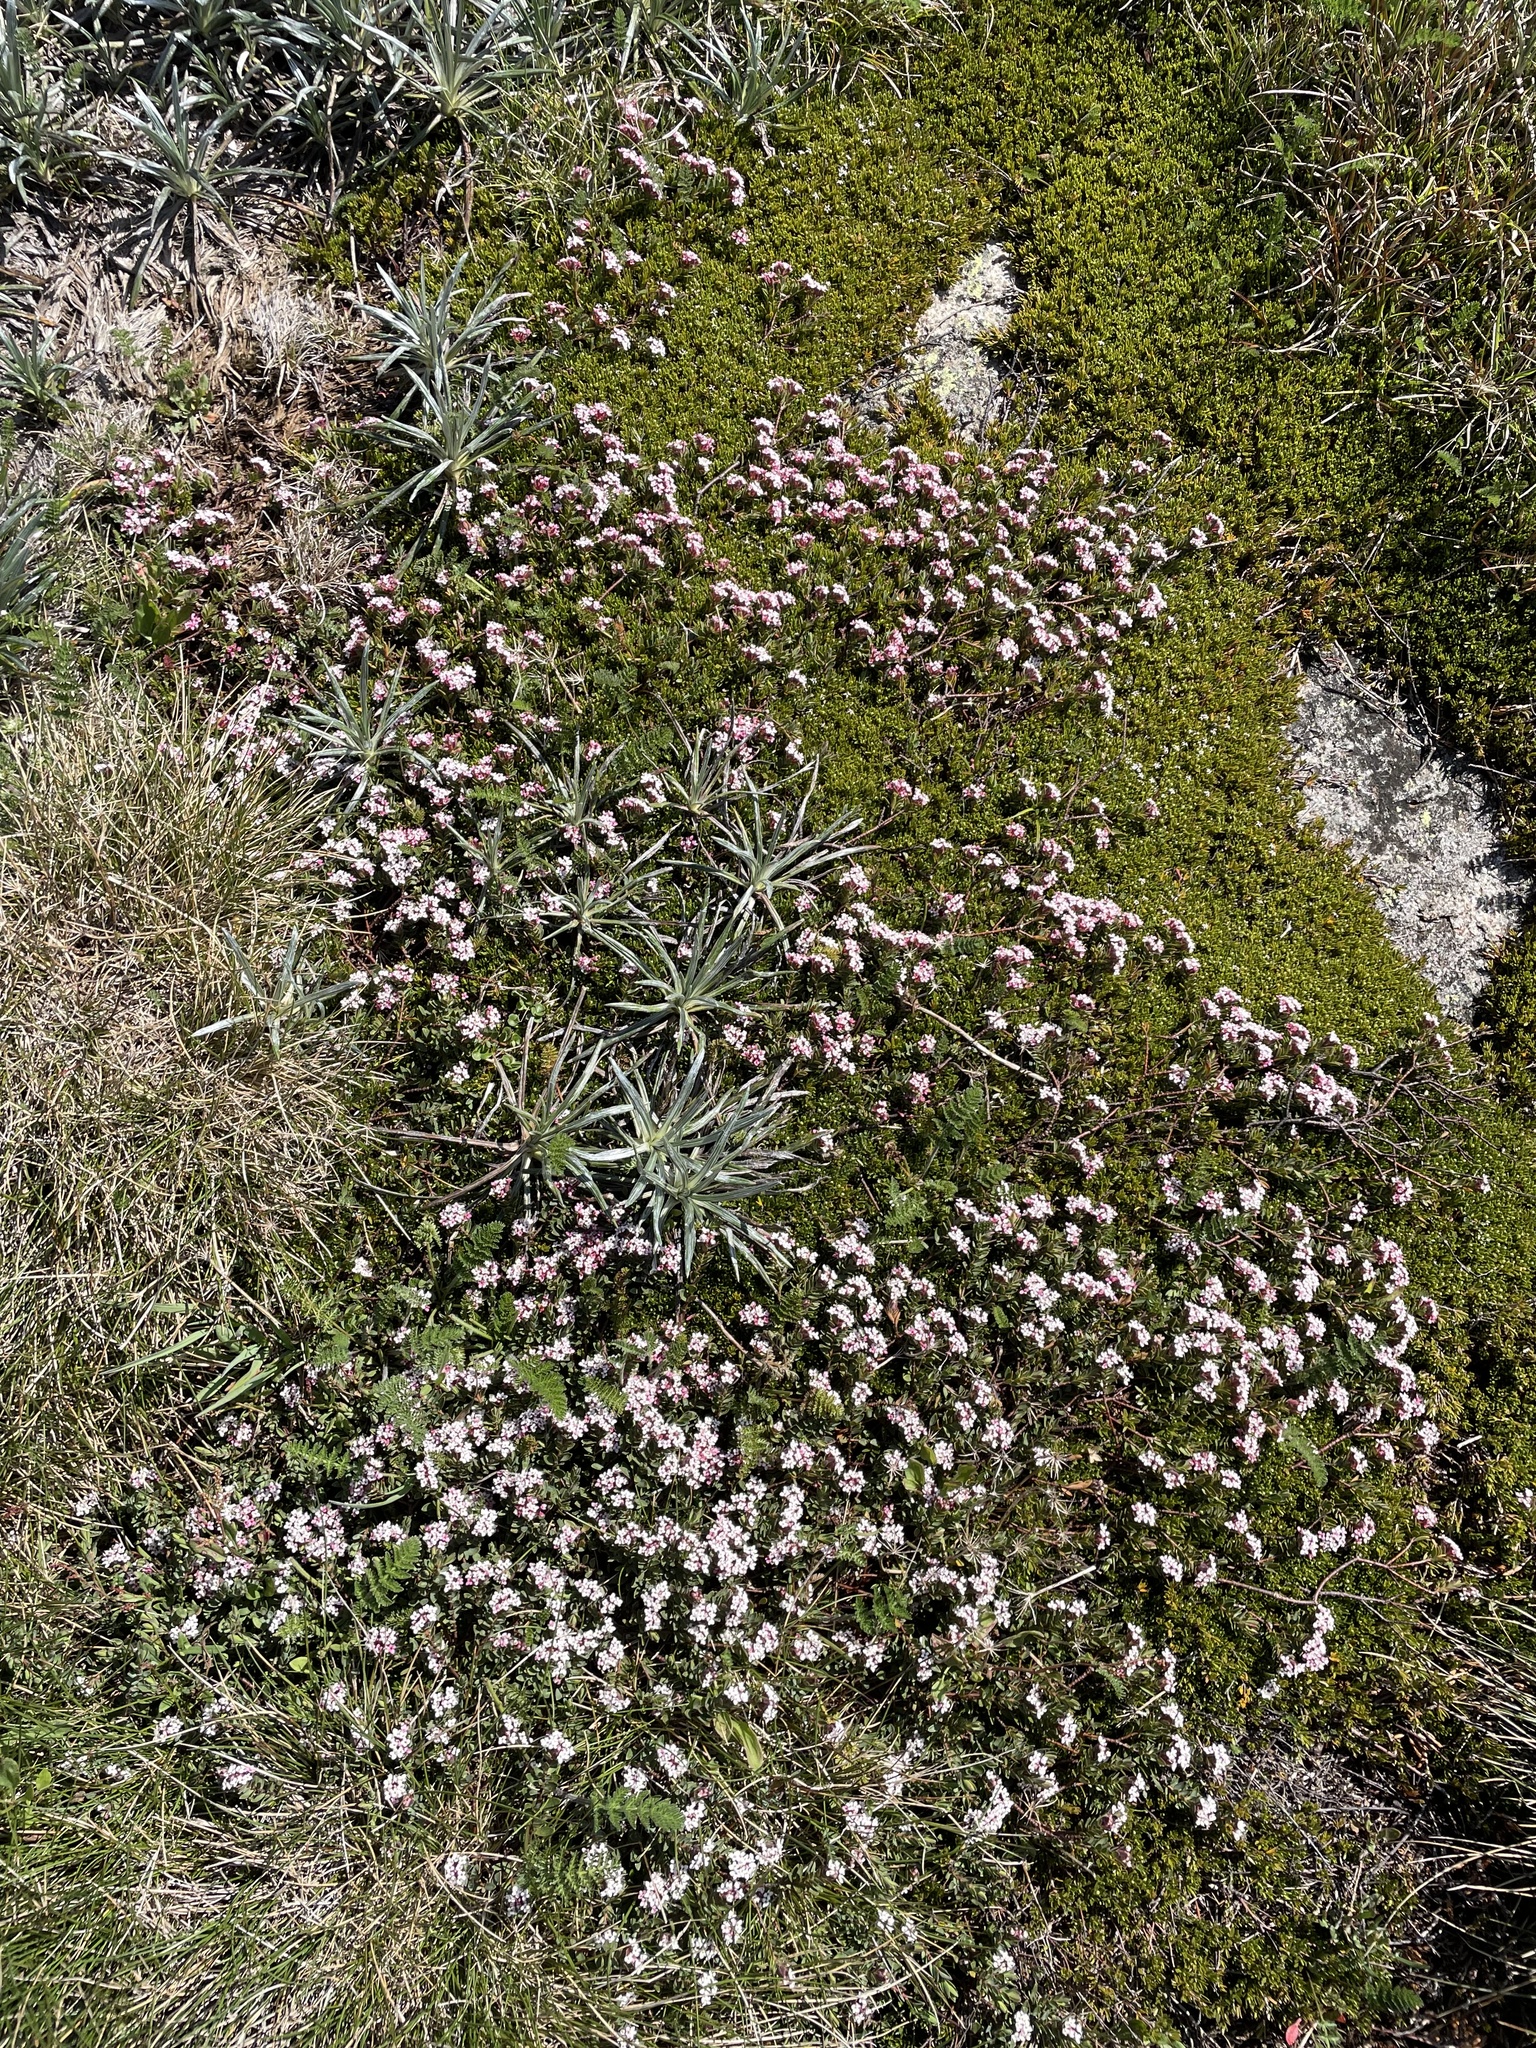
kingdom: Plantae
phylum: Tracheophyta
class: Magnoliopsida
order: Malvales
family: Thymelaeaceae
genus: Pimelea
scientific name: Pimelea alpina
